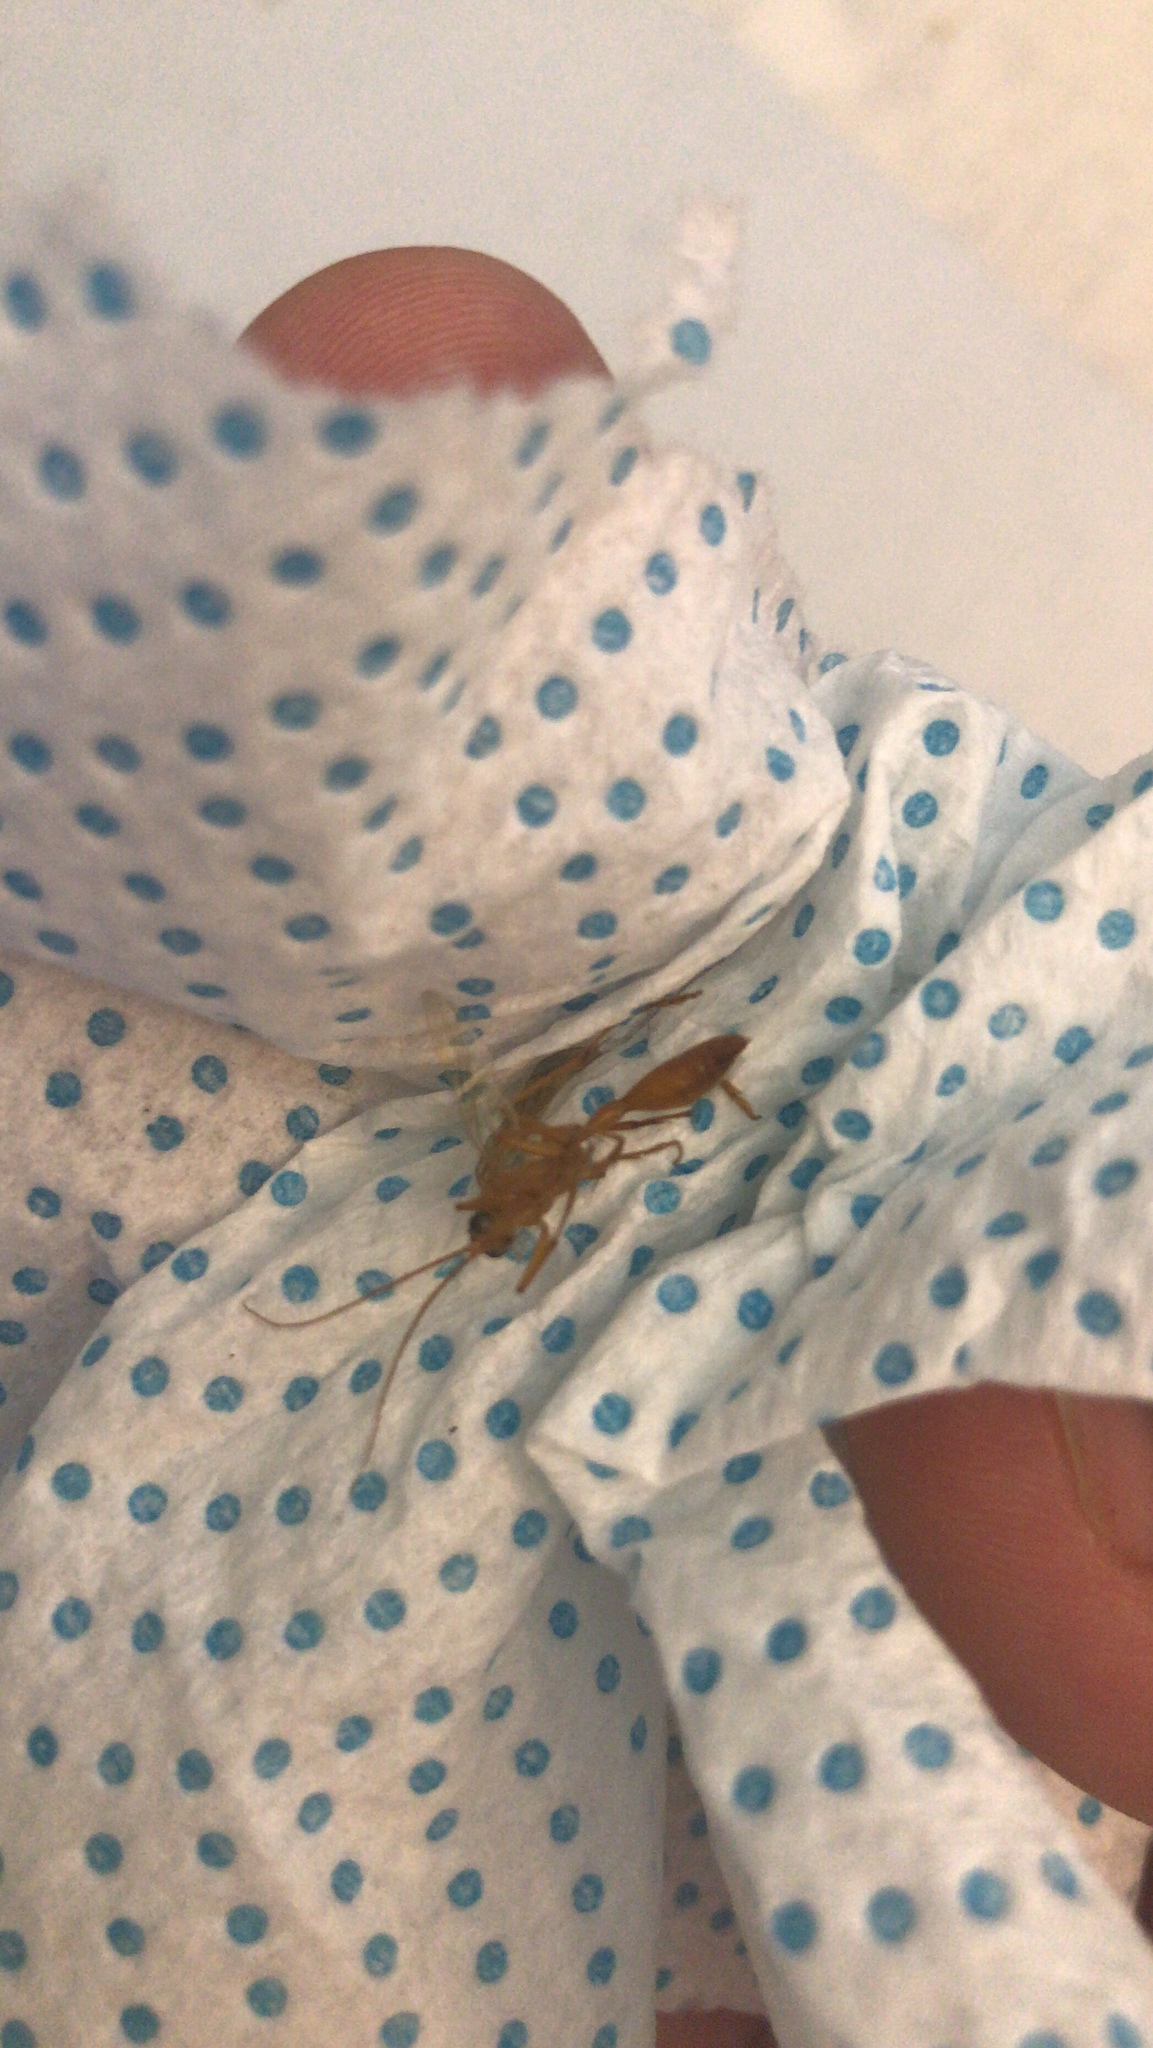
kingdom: Animalia
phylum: Arthropoda
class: Insecta
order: Hymenoptera
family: Rhopalosomatidae
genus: Rhopalosoma
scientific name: Rhopalosoma nearcticum
